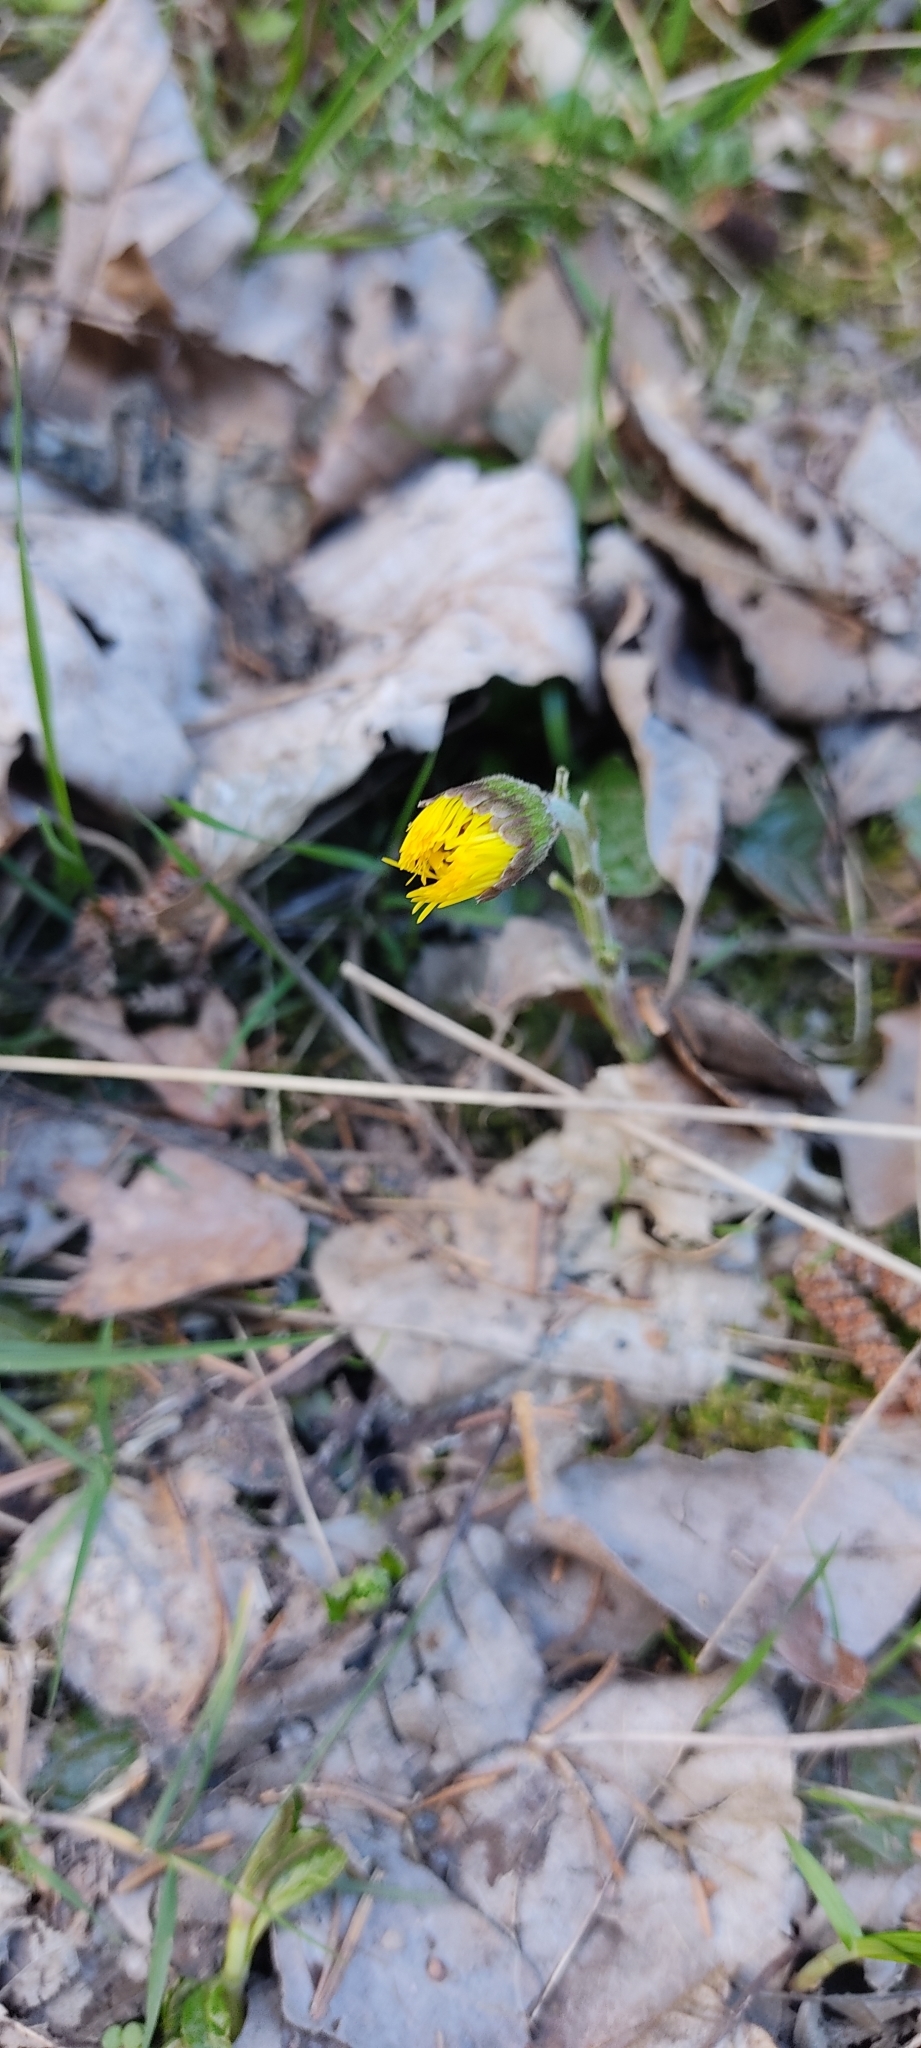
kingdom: Plantae
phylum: Tracheophyta
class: Magnoliopsida
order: Asterales
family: Asteraceae
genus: Tussilago
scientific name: Tussilago farfara
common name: Coltsfoot
